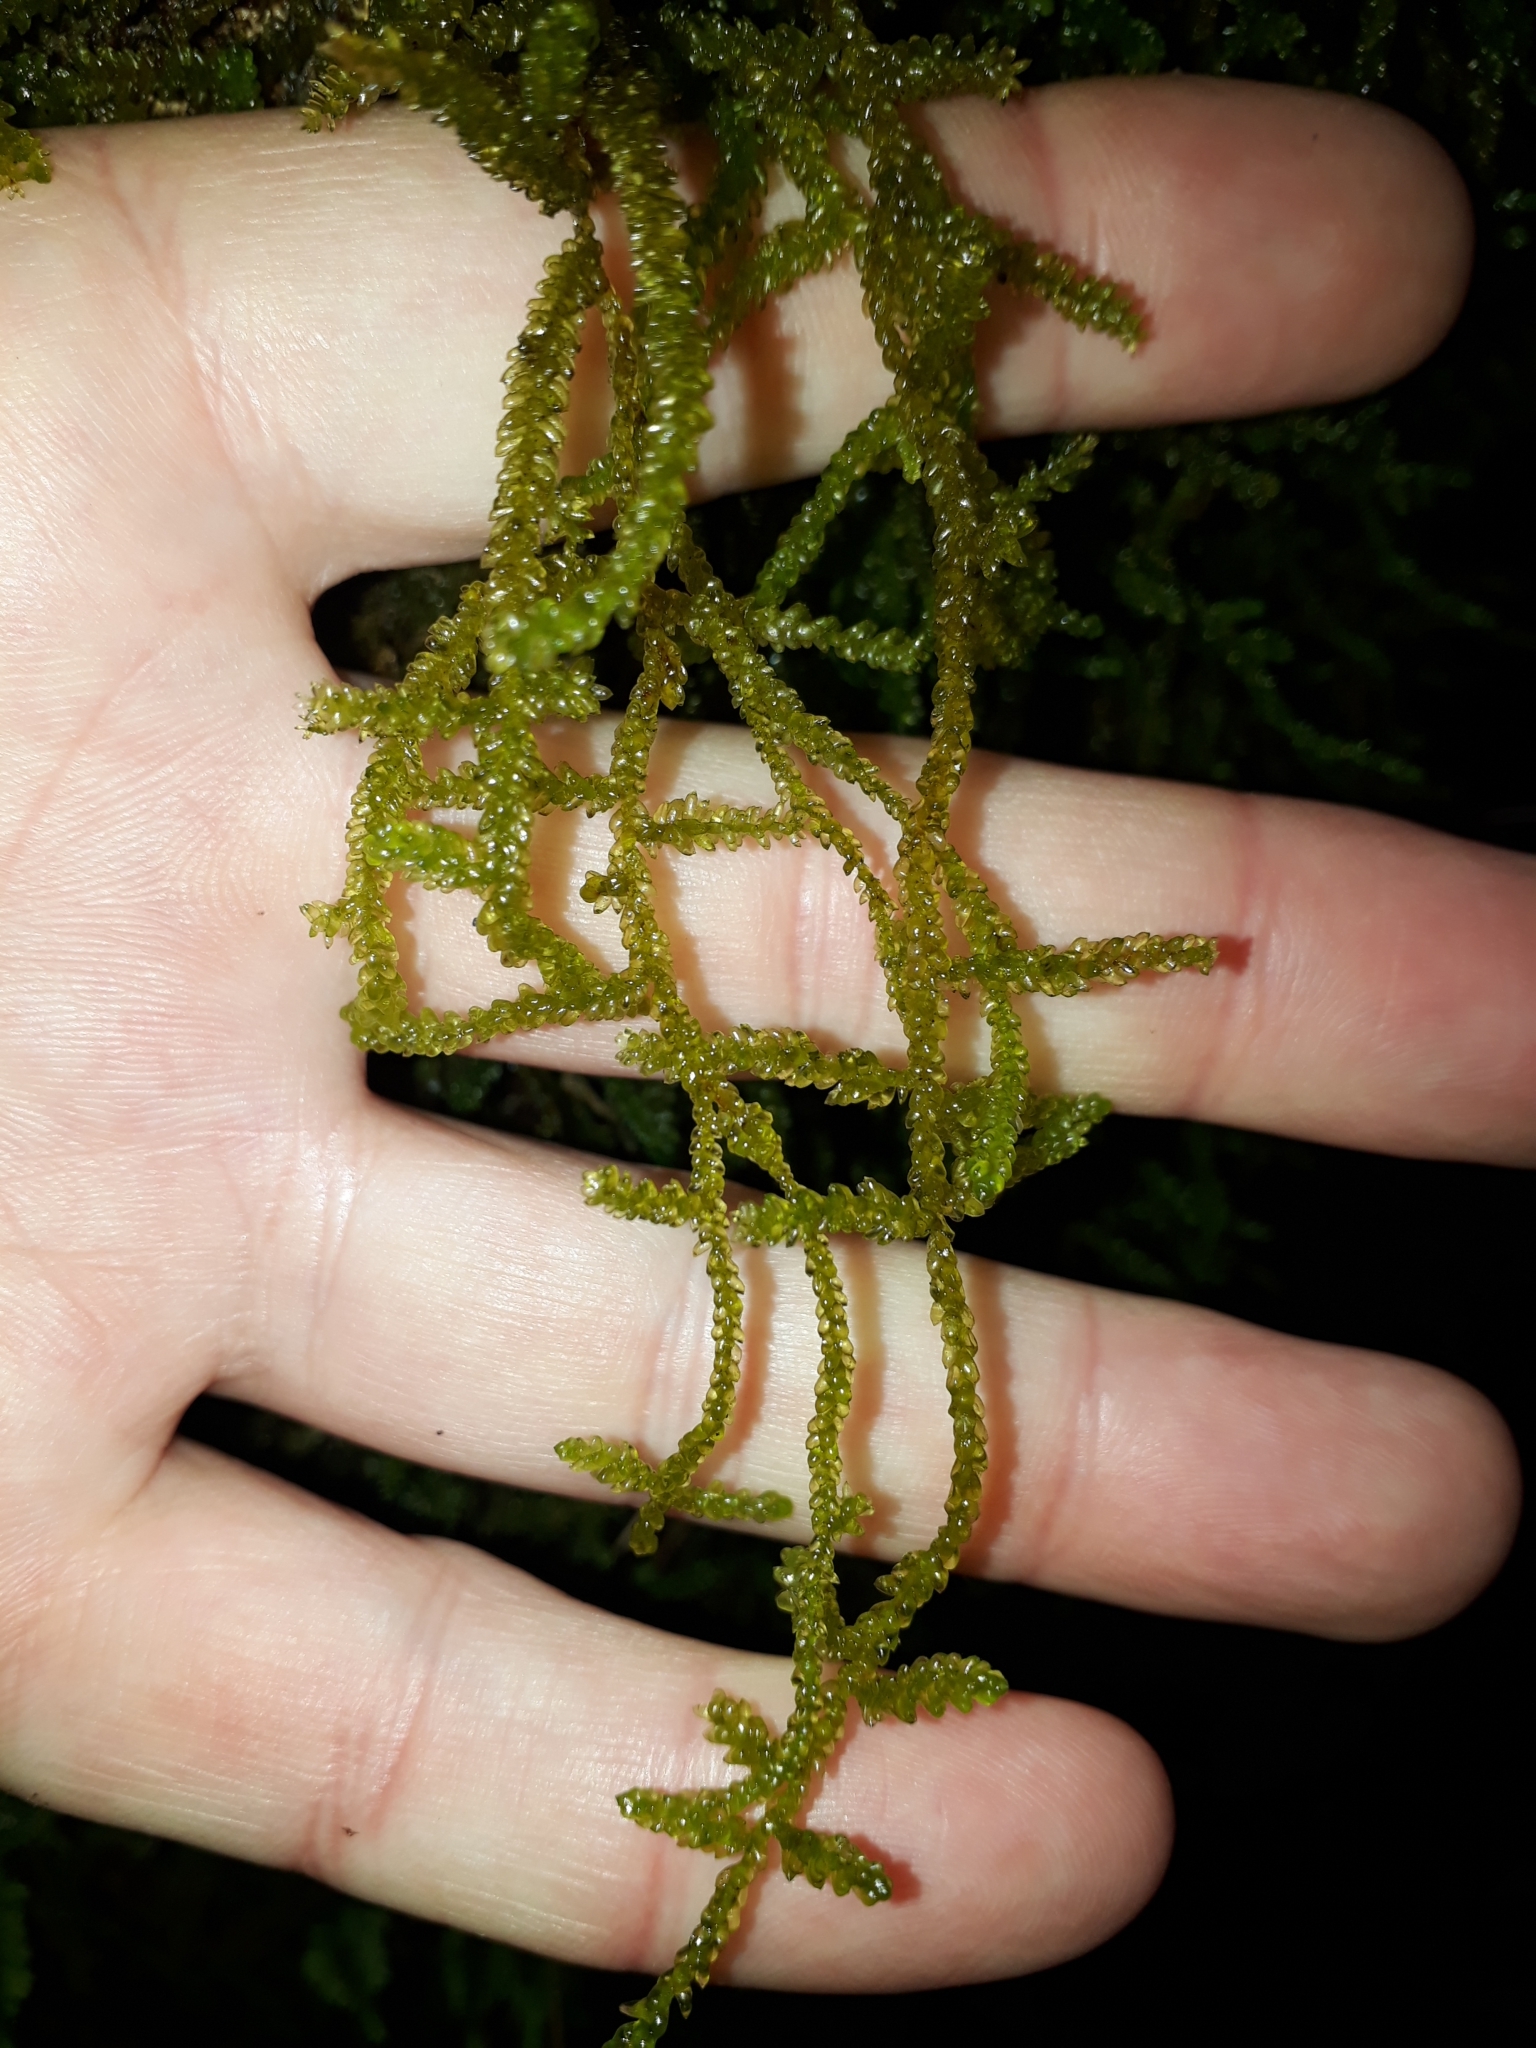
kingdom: Plantae
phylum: Bryophyta
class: Bryopsida
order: Hypnales
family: Lembophyllaceae
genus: Weymouthia
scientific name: Weymouthia cochlearifolia
